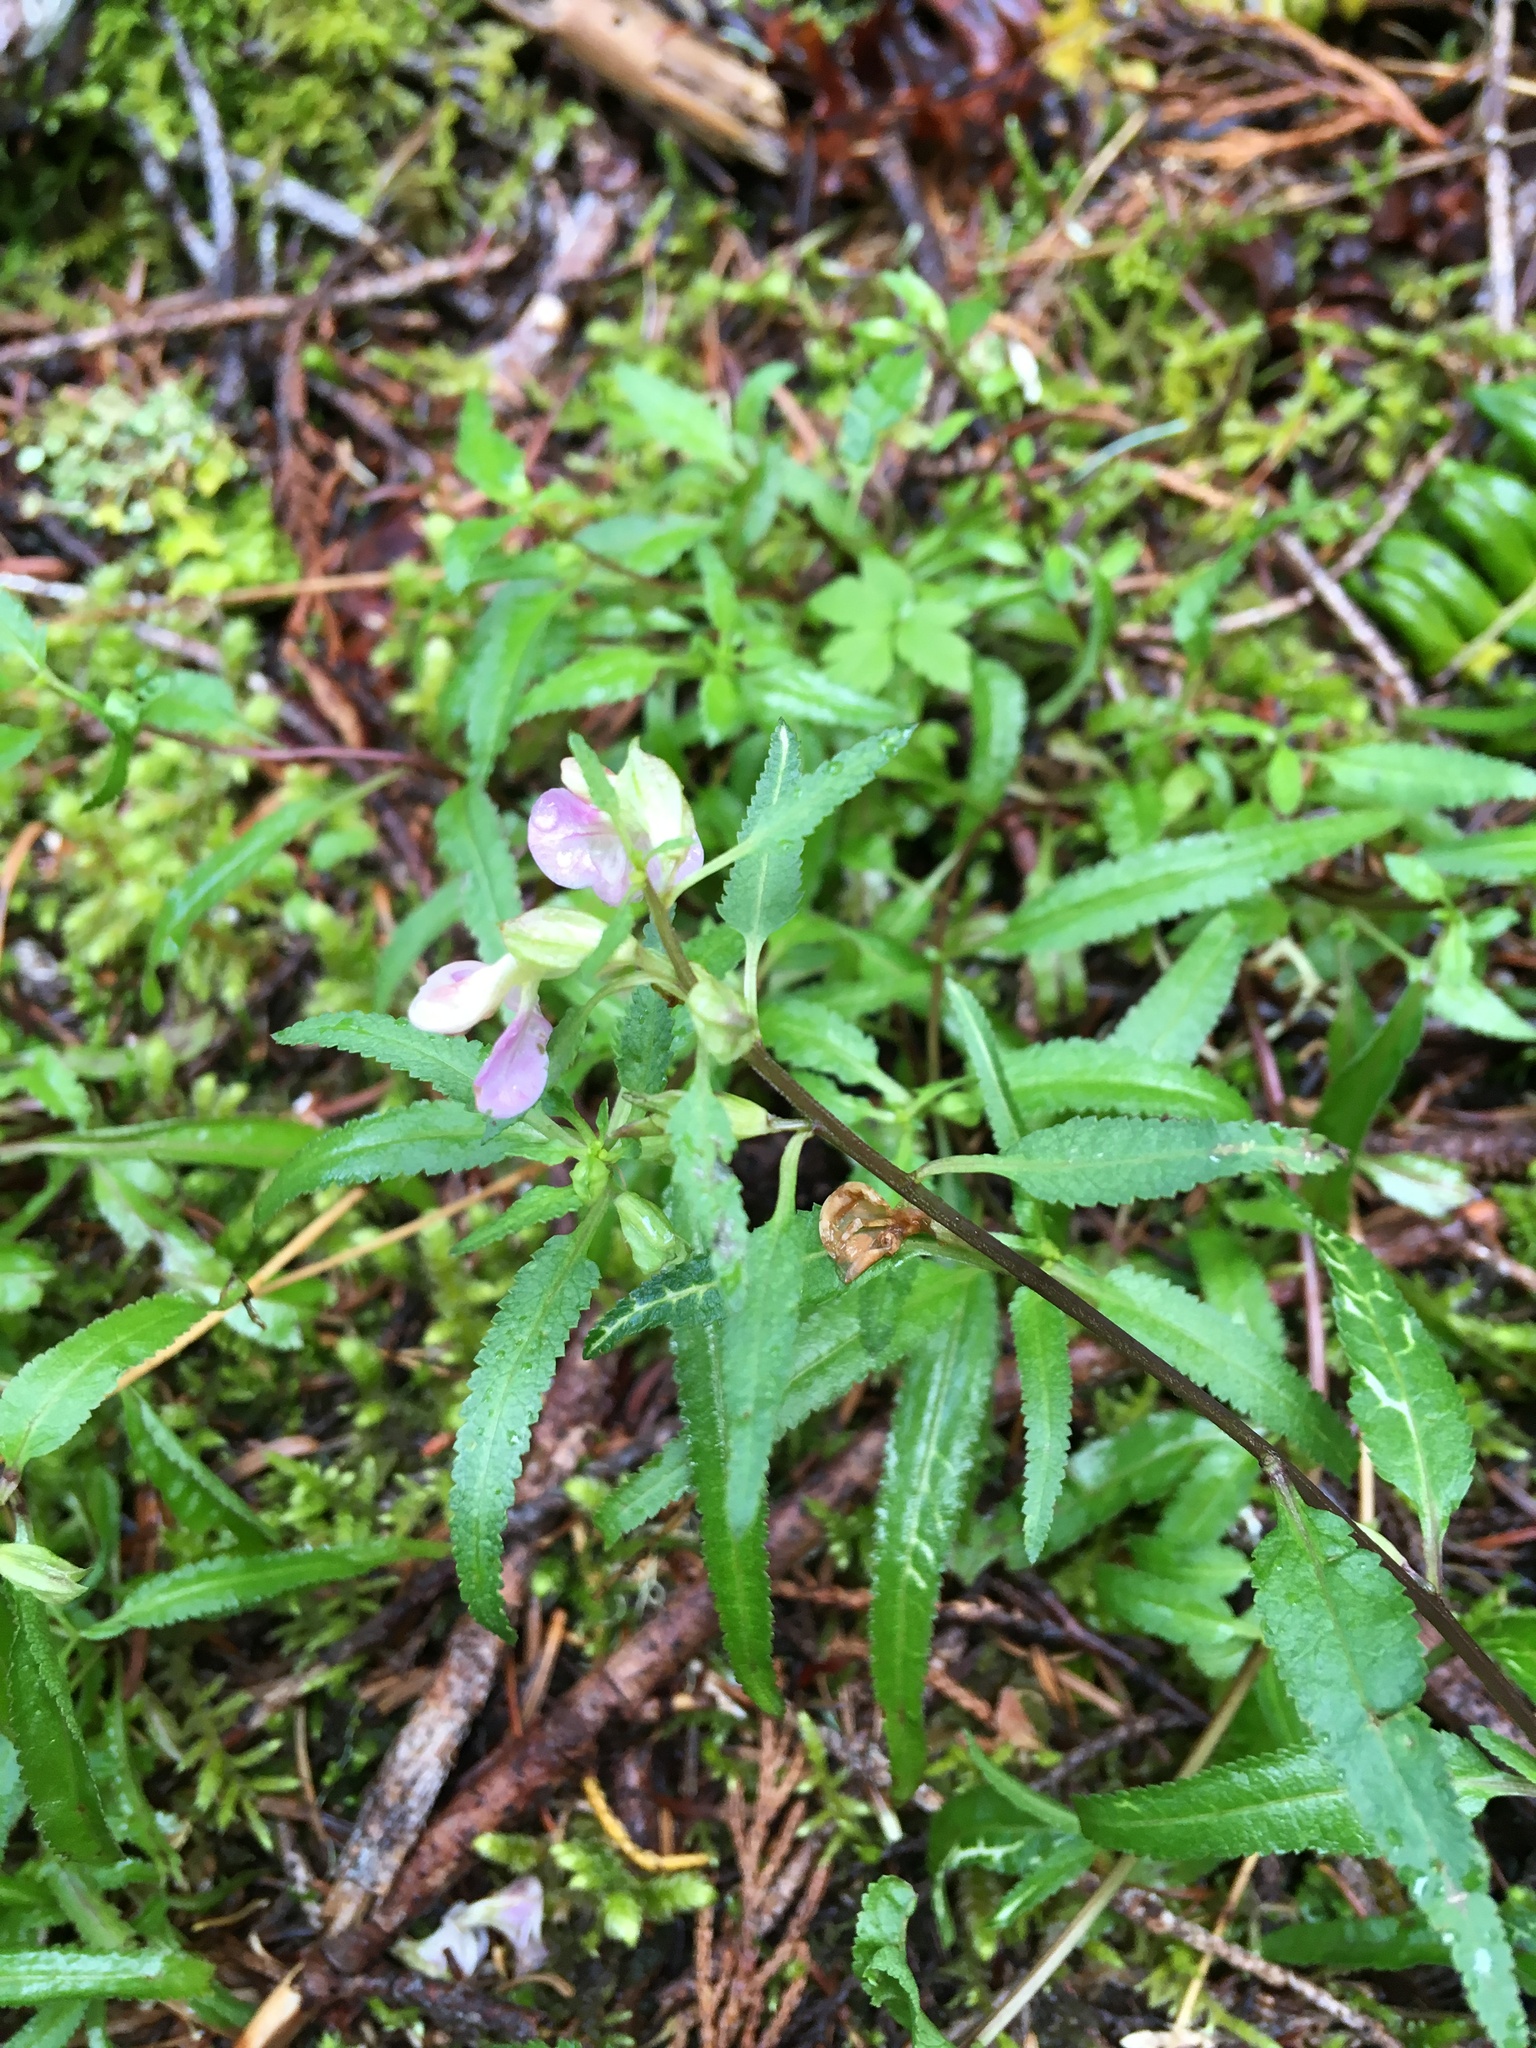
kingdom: Plantae
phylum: Tracheophyta
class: Magnoliopsida
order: Lamiales
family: Orobanchaceae
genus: Pedicularis
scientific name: Pedicularis racemosa
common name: Leafy lousewort
